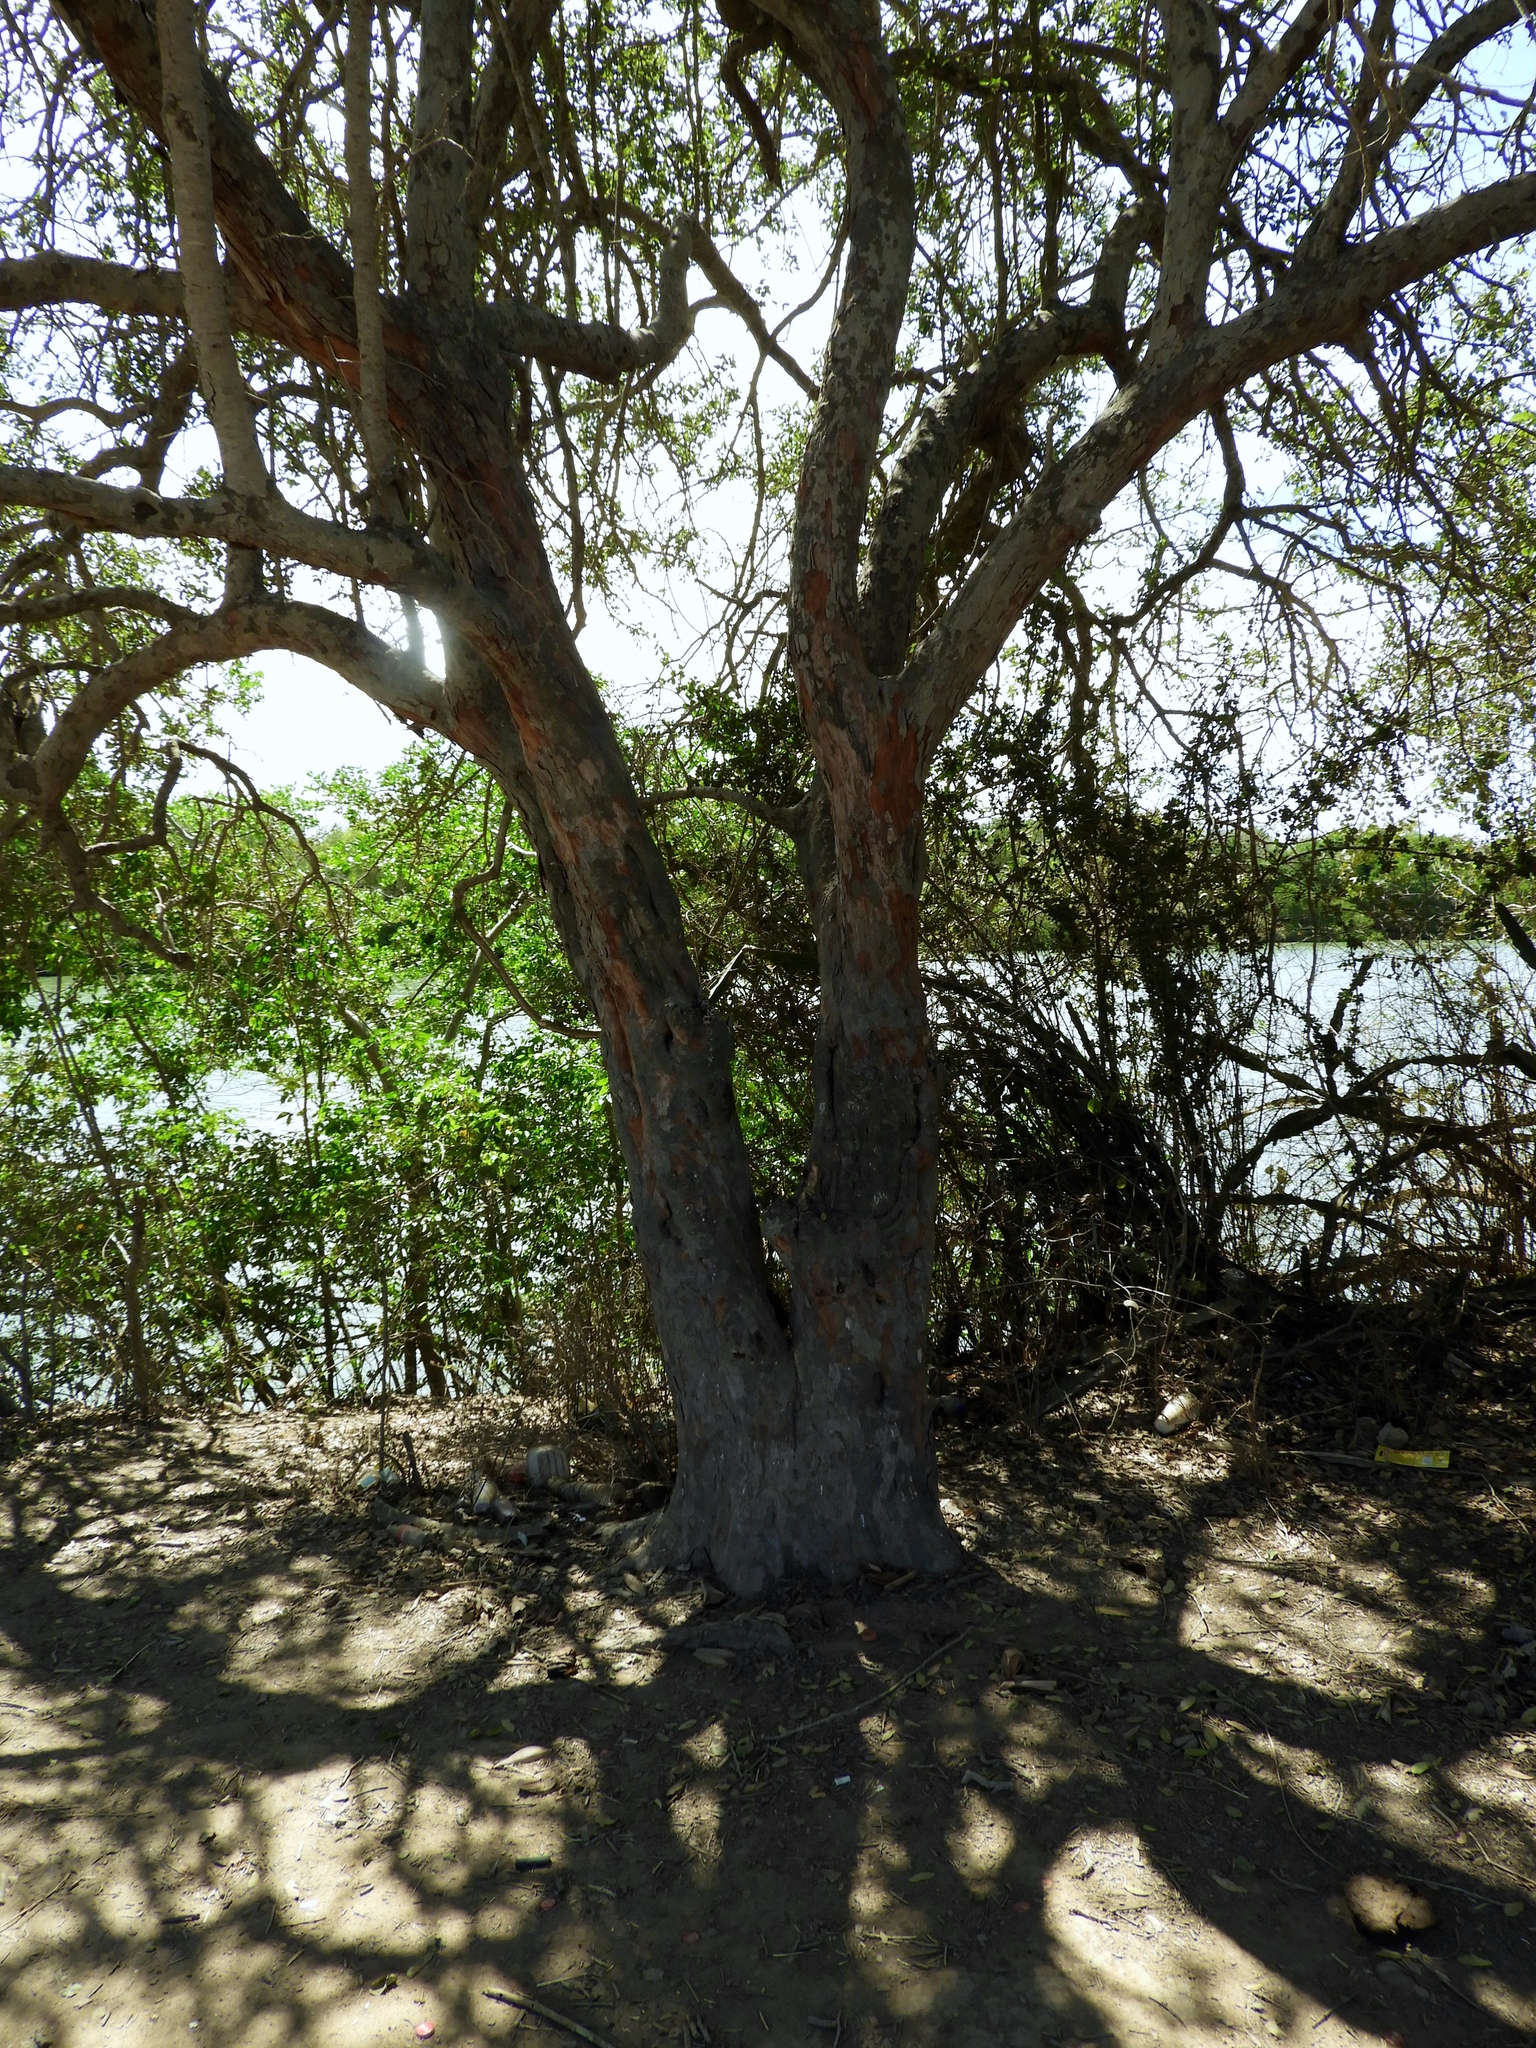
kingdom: Plantae
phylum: Tracheophyta
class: Magnoliopsida
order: Rosales
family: Rhamnaceae
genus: Sarcomphalus
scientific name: Sarcomphalus amole
